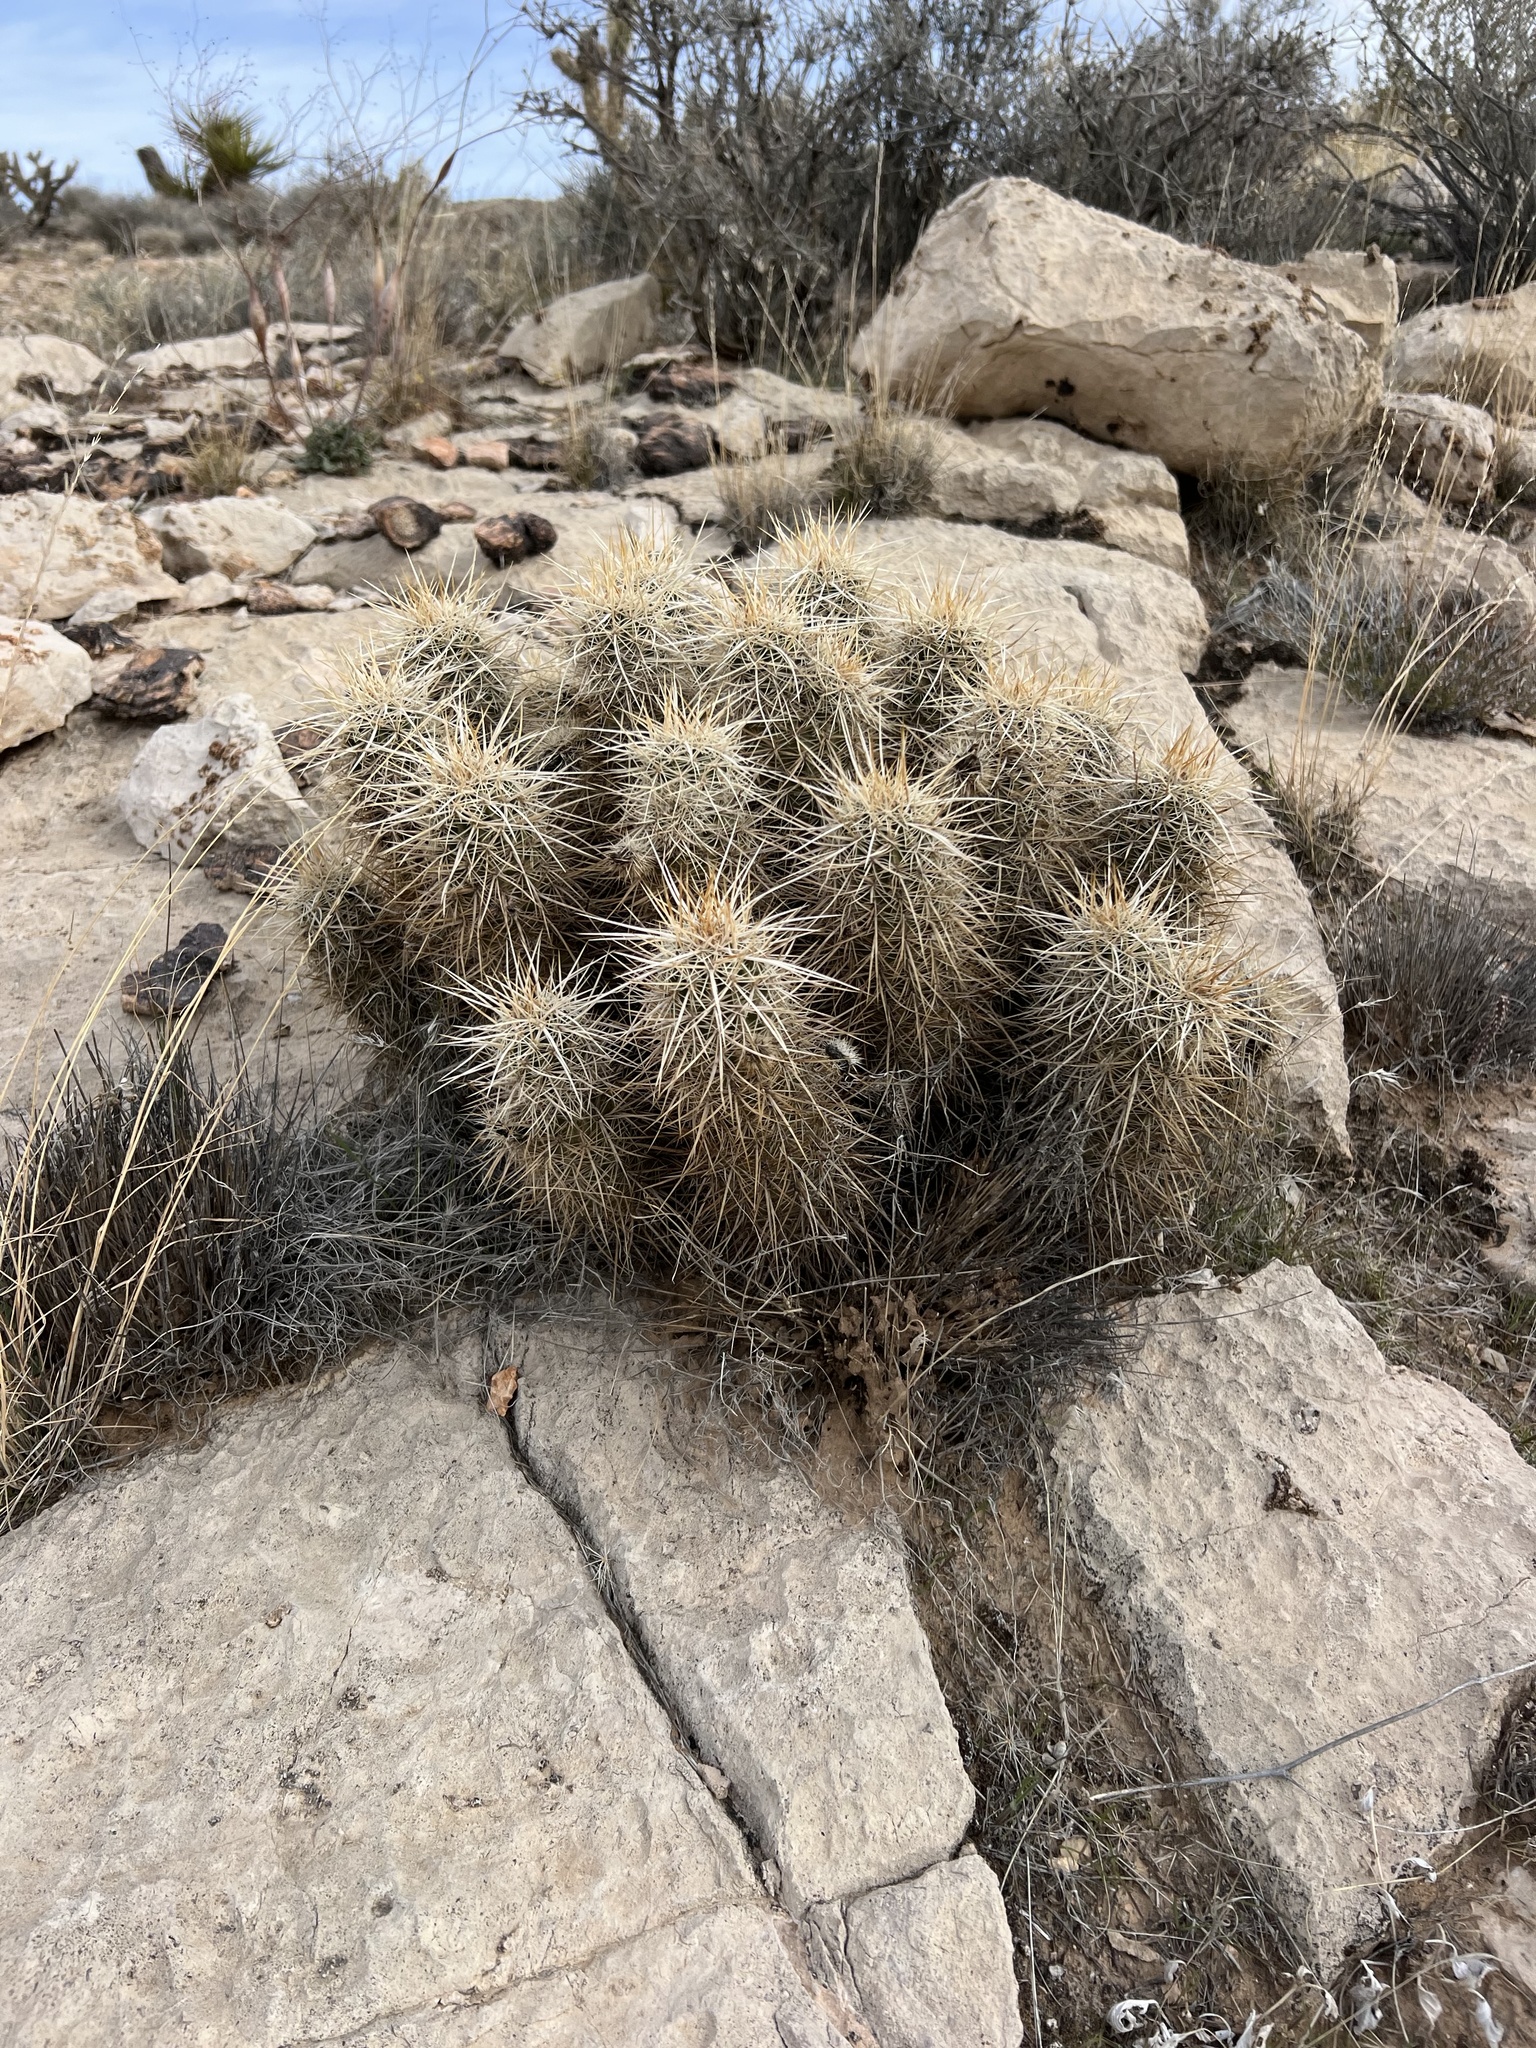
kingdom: Plantae
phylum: Tracheophyta
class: Magnoliopsida
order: Caryophyllales
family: Cactaceae
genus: Echinocereus
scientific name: Echinocereus engelmannii
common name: Engelmann's hedgehog cactus
